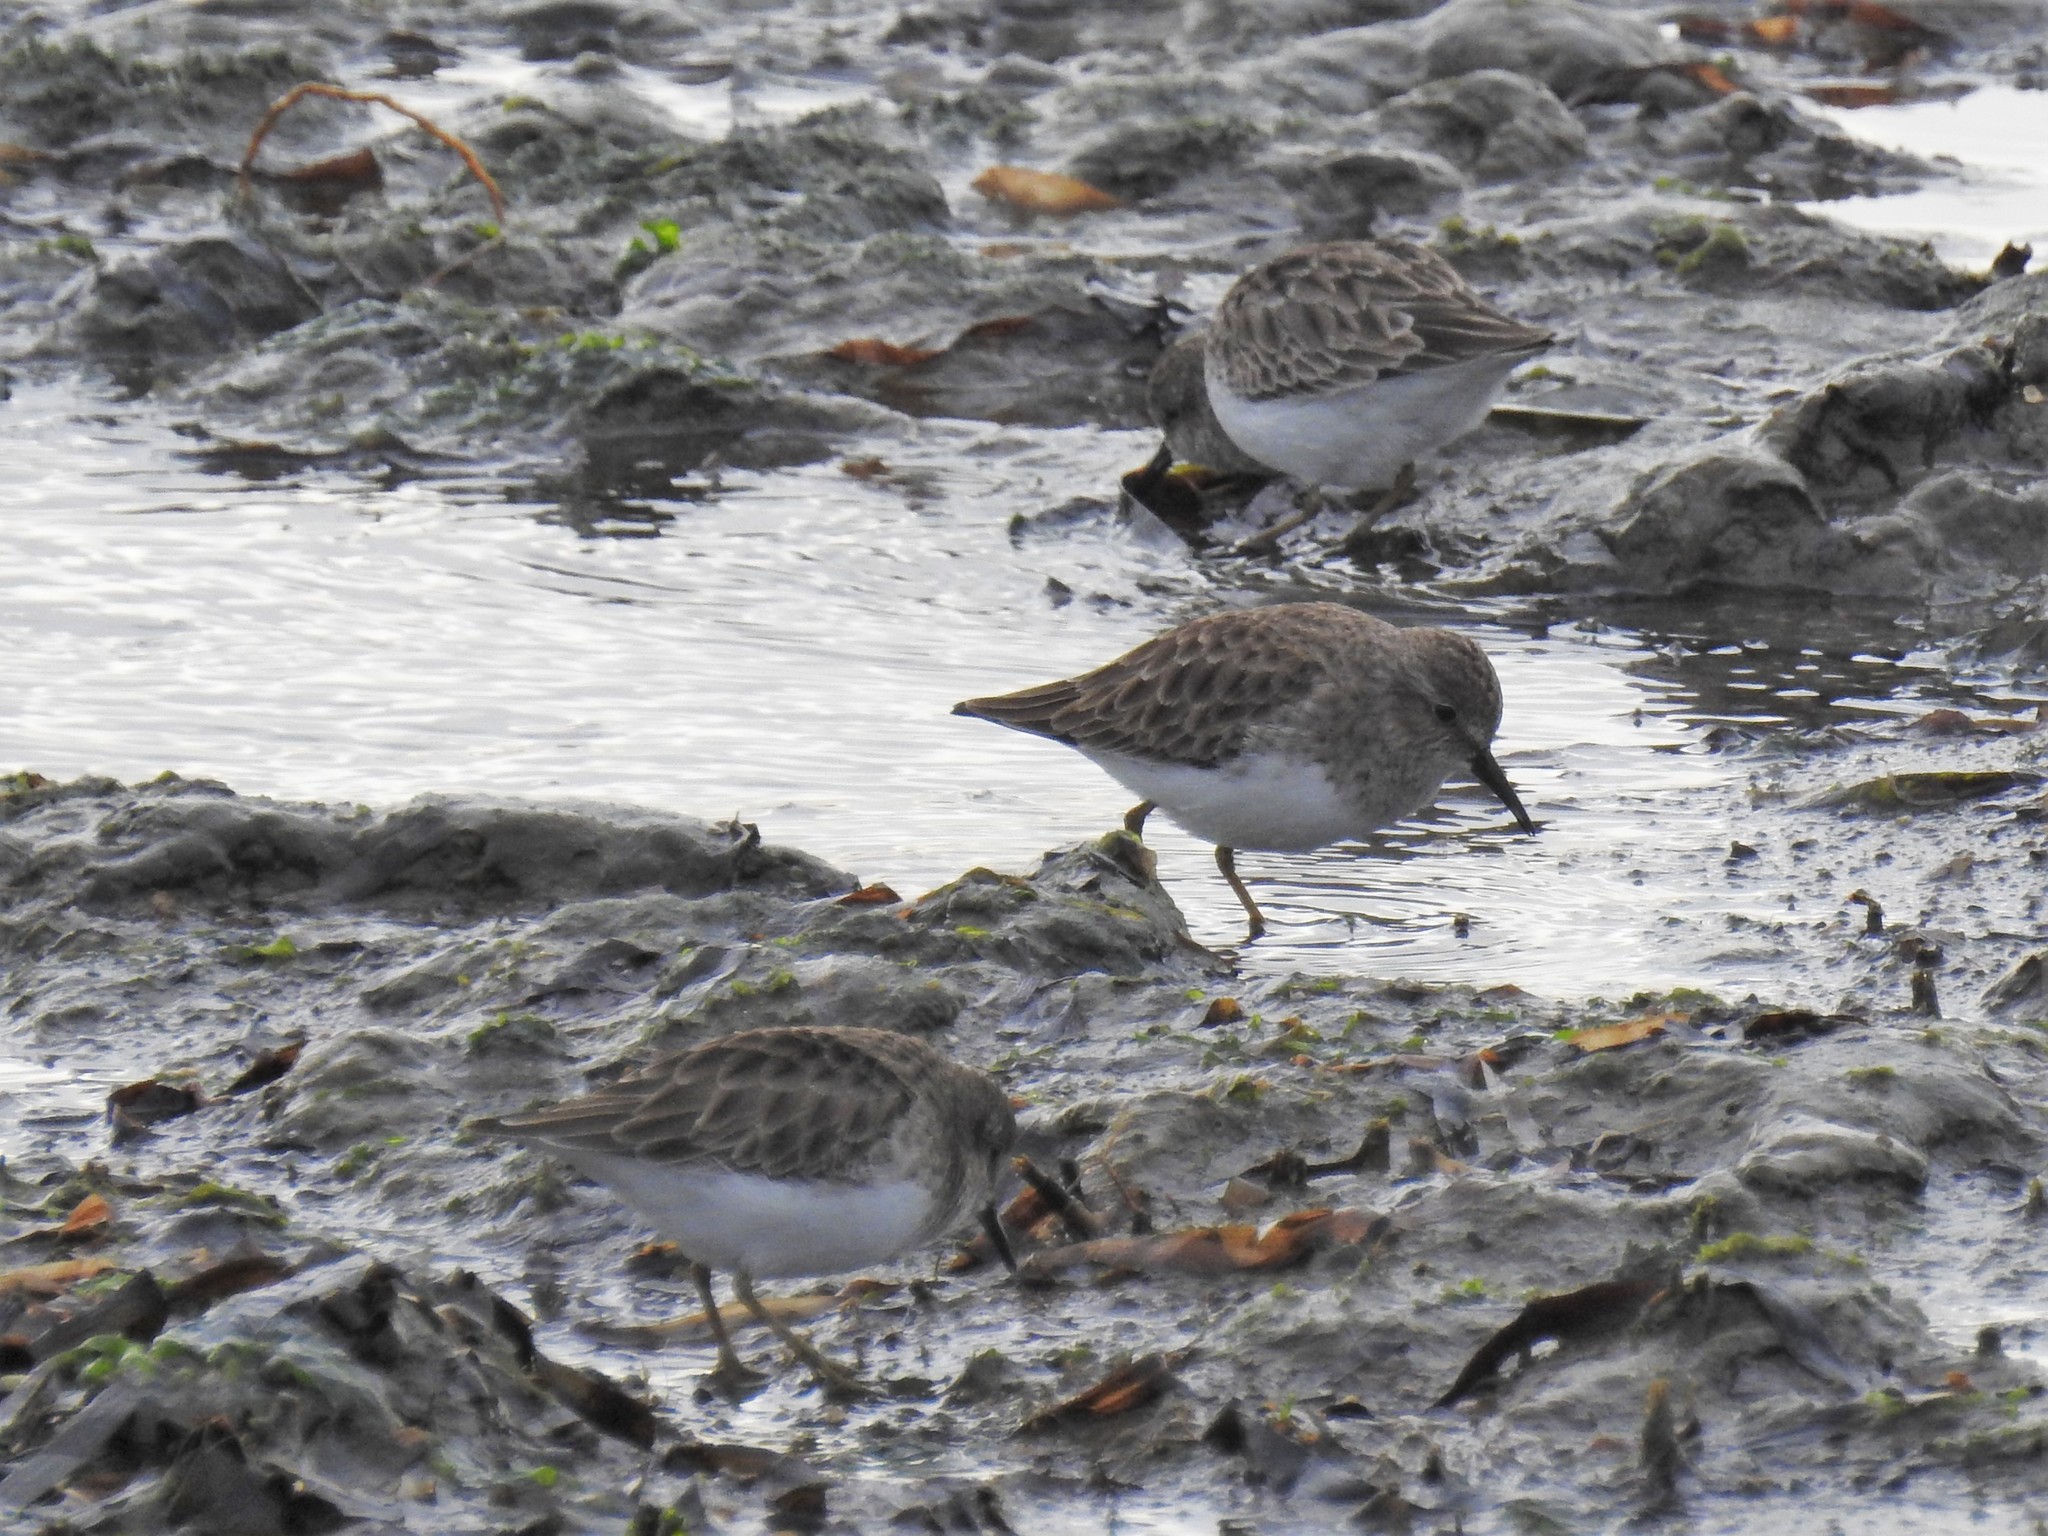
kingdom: Animalia
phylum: Chordata
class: Aves
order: Charadriiformes
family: Scolopacidae
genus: Calidris
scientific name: Calidris minutilla
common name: Least sandpiper
